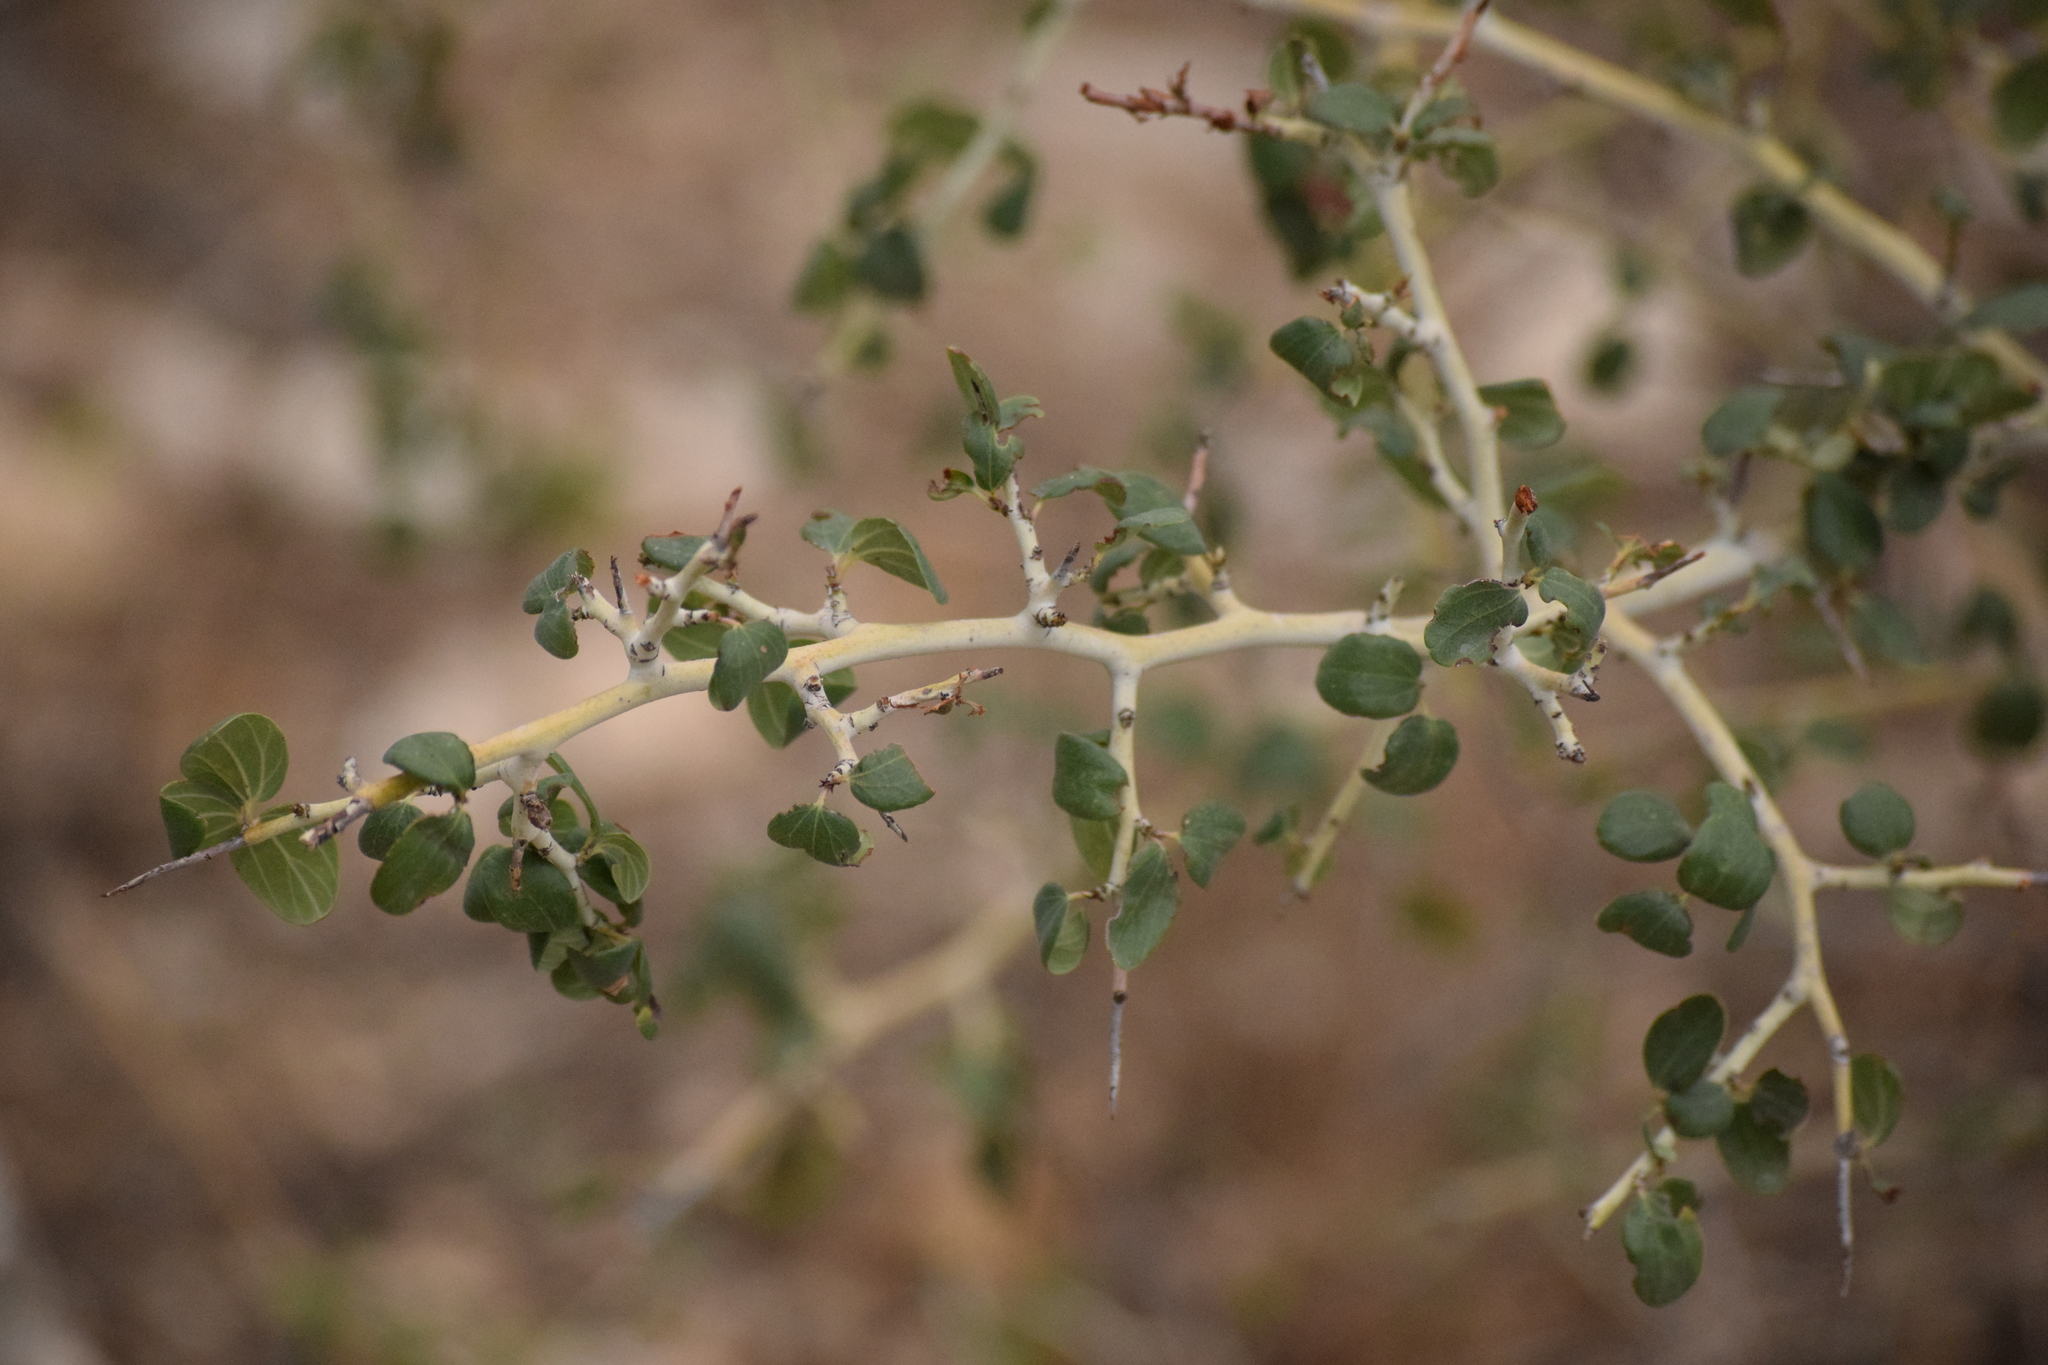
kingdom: Plantae
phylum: Tracheophyta
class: Magnoliopsida
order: Rosales
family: Rhamnaceae
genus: Ceanothus
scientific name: Ceanothus leucodermis
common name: Chaparral whitethorn
